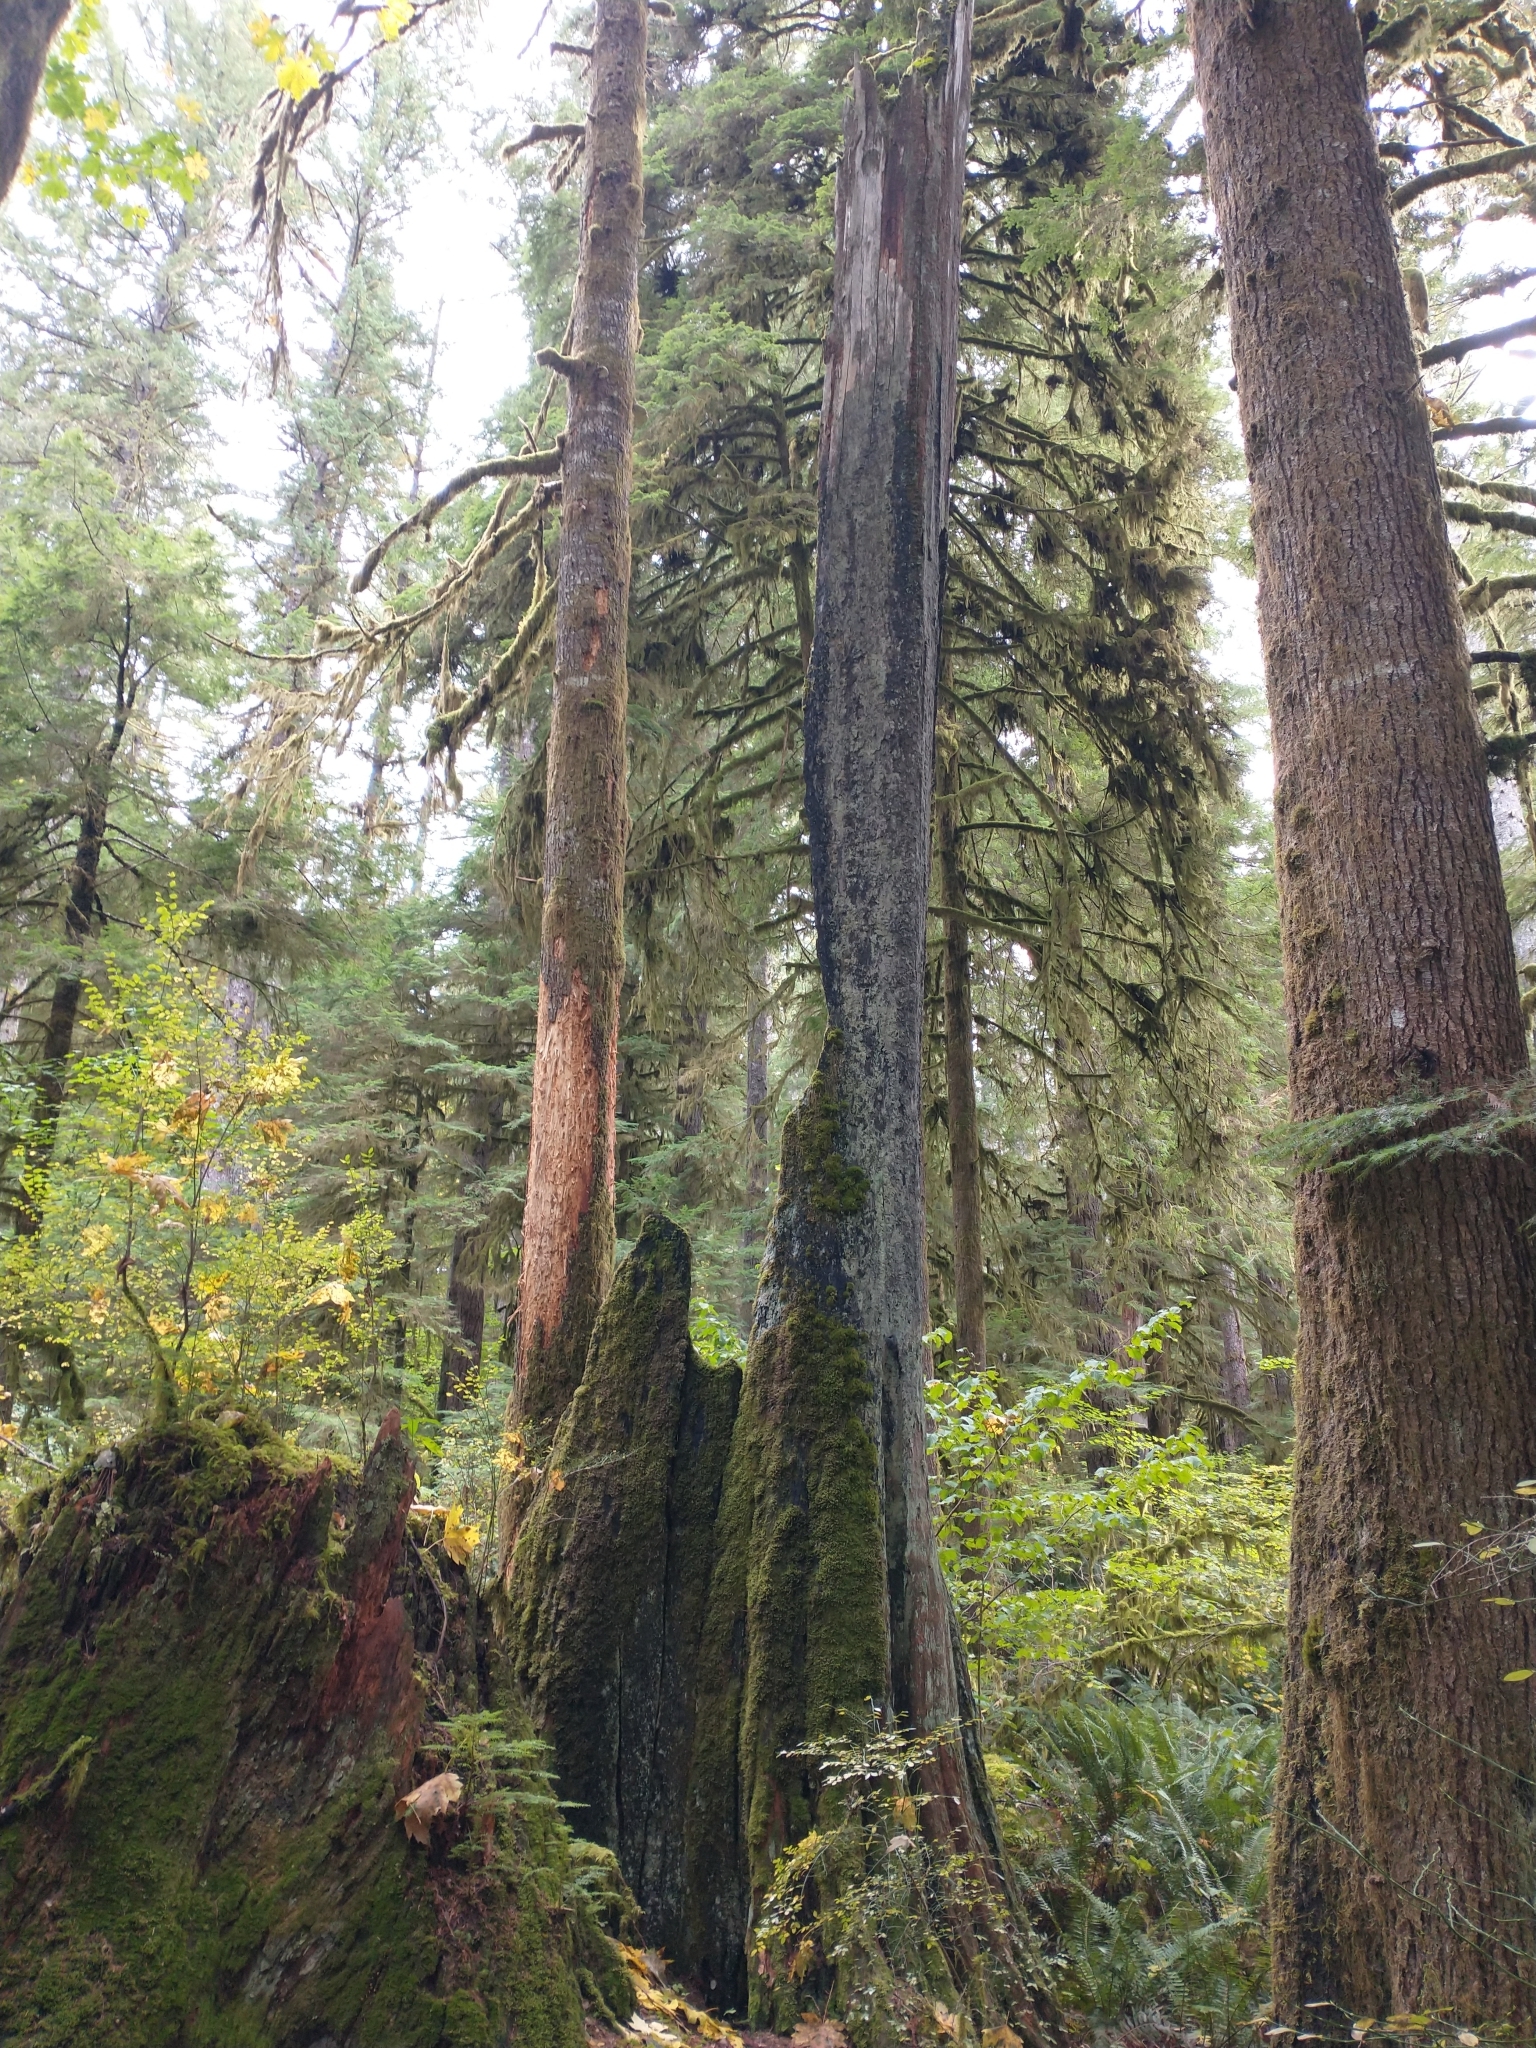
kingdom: Plantae
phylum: Tracheophyta
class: Pinopsida
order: Pinales
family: Cupressaceae
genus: Thuja
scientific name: Thuja plicata
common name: Western red-cedar
